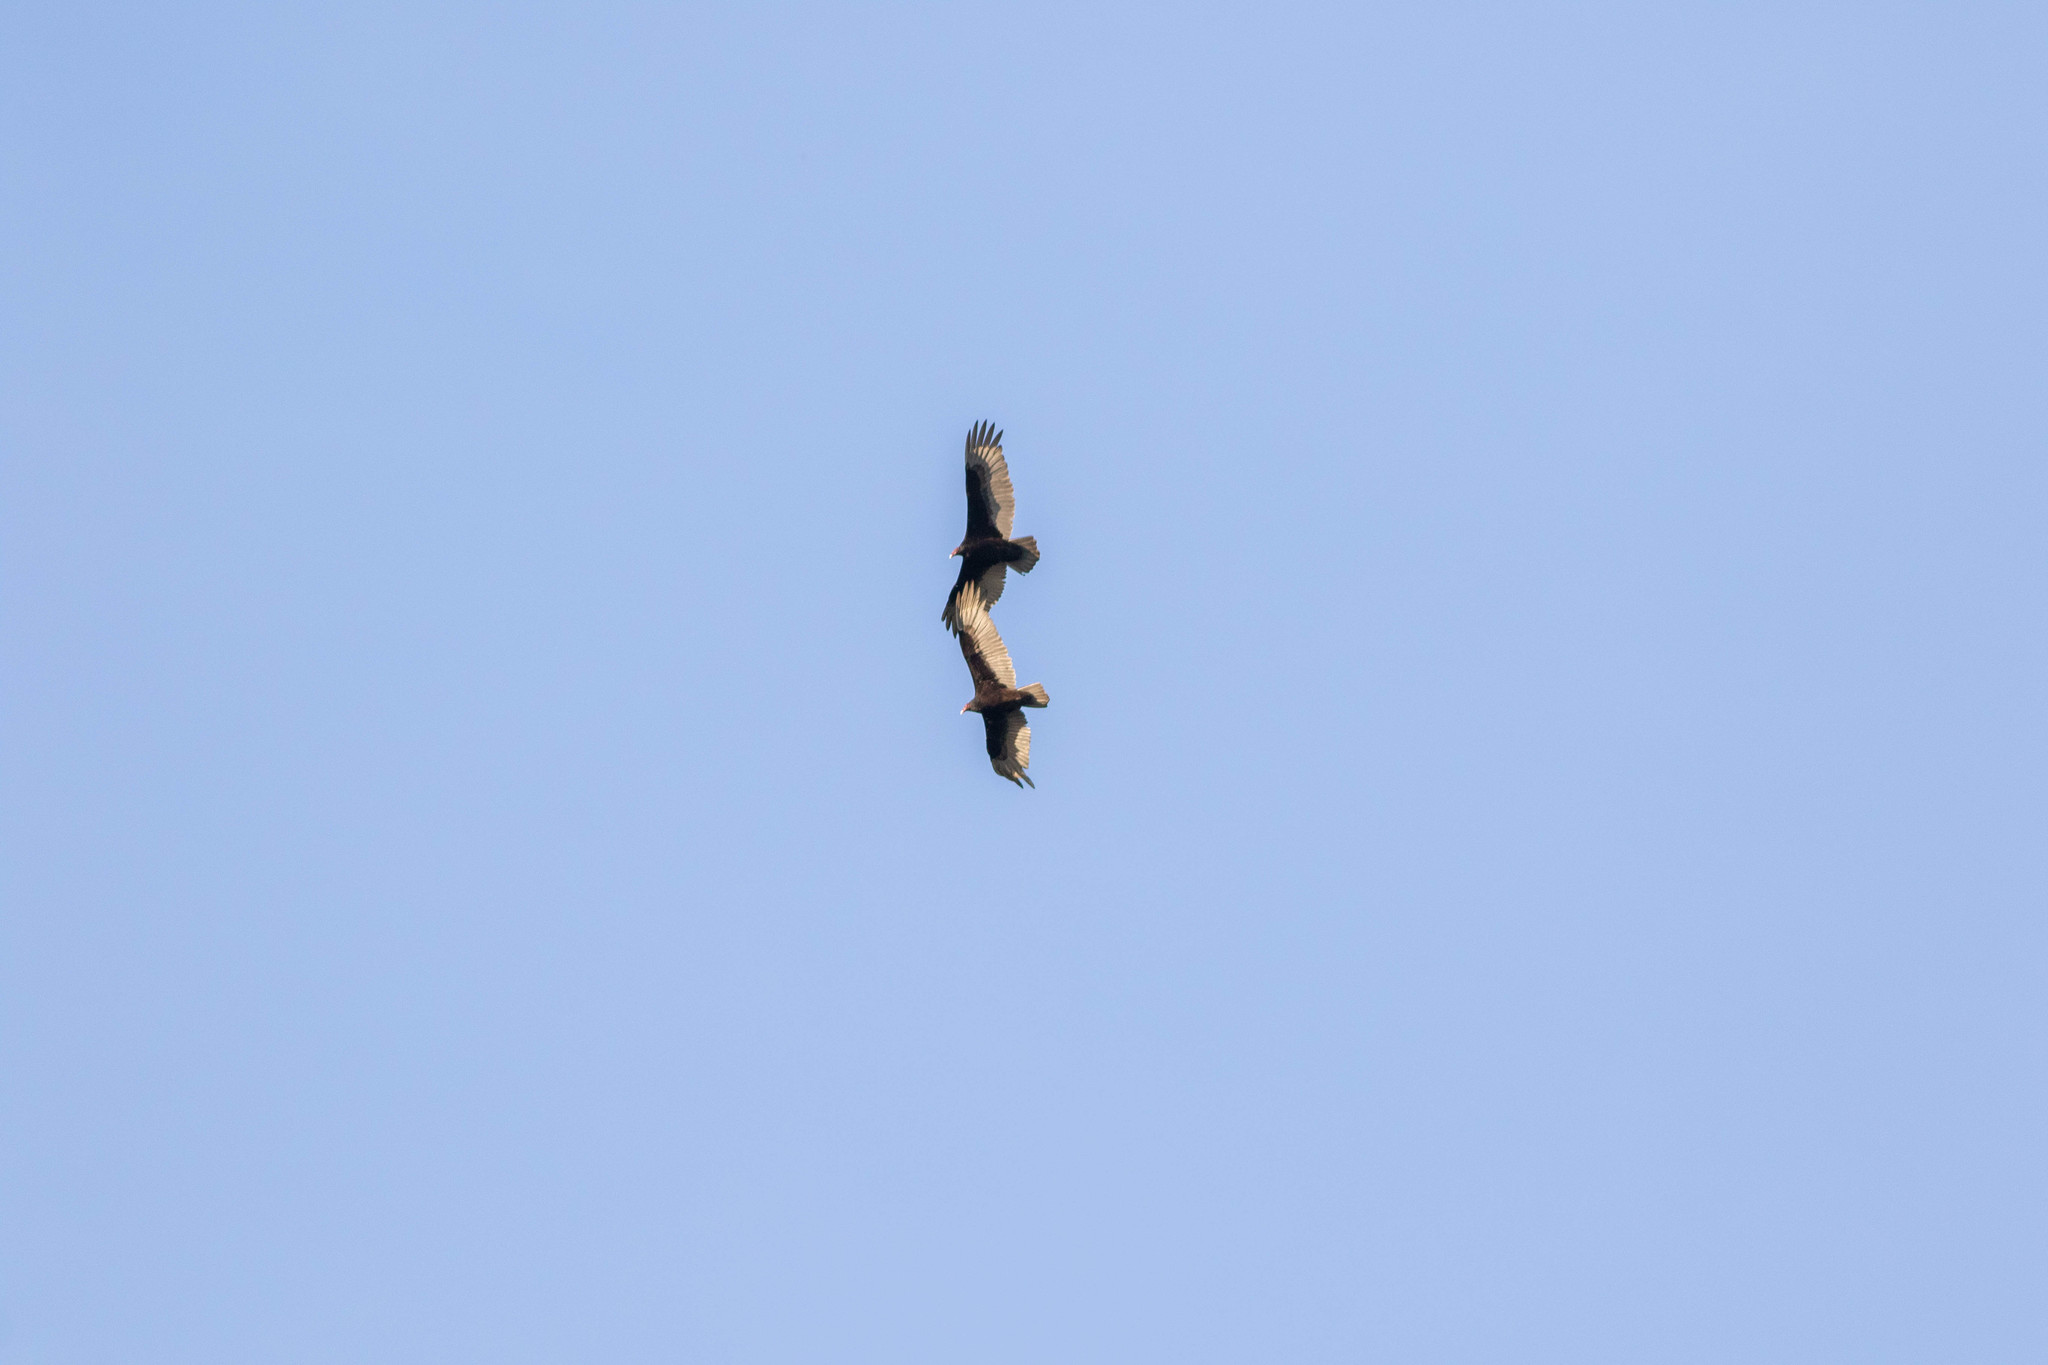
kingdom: Animalia
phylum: Chordata
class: Aves
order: Accipitriformes
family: Cathartidae
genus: Cathartes
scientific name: Cathartes aura
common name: Turkey vulture
